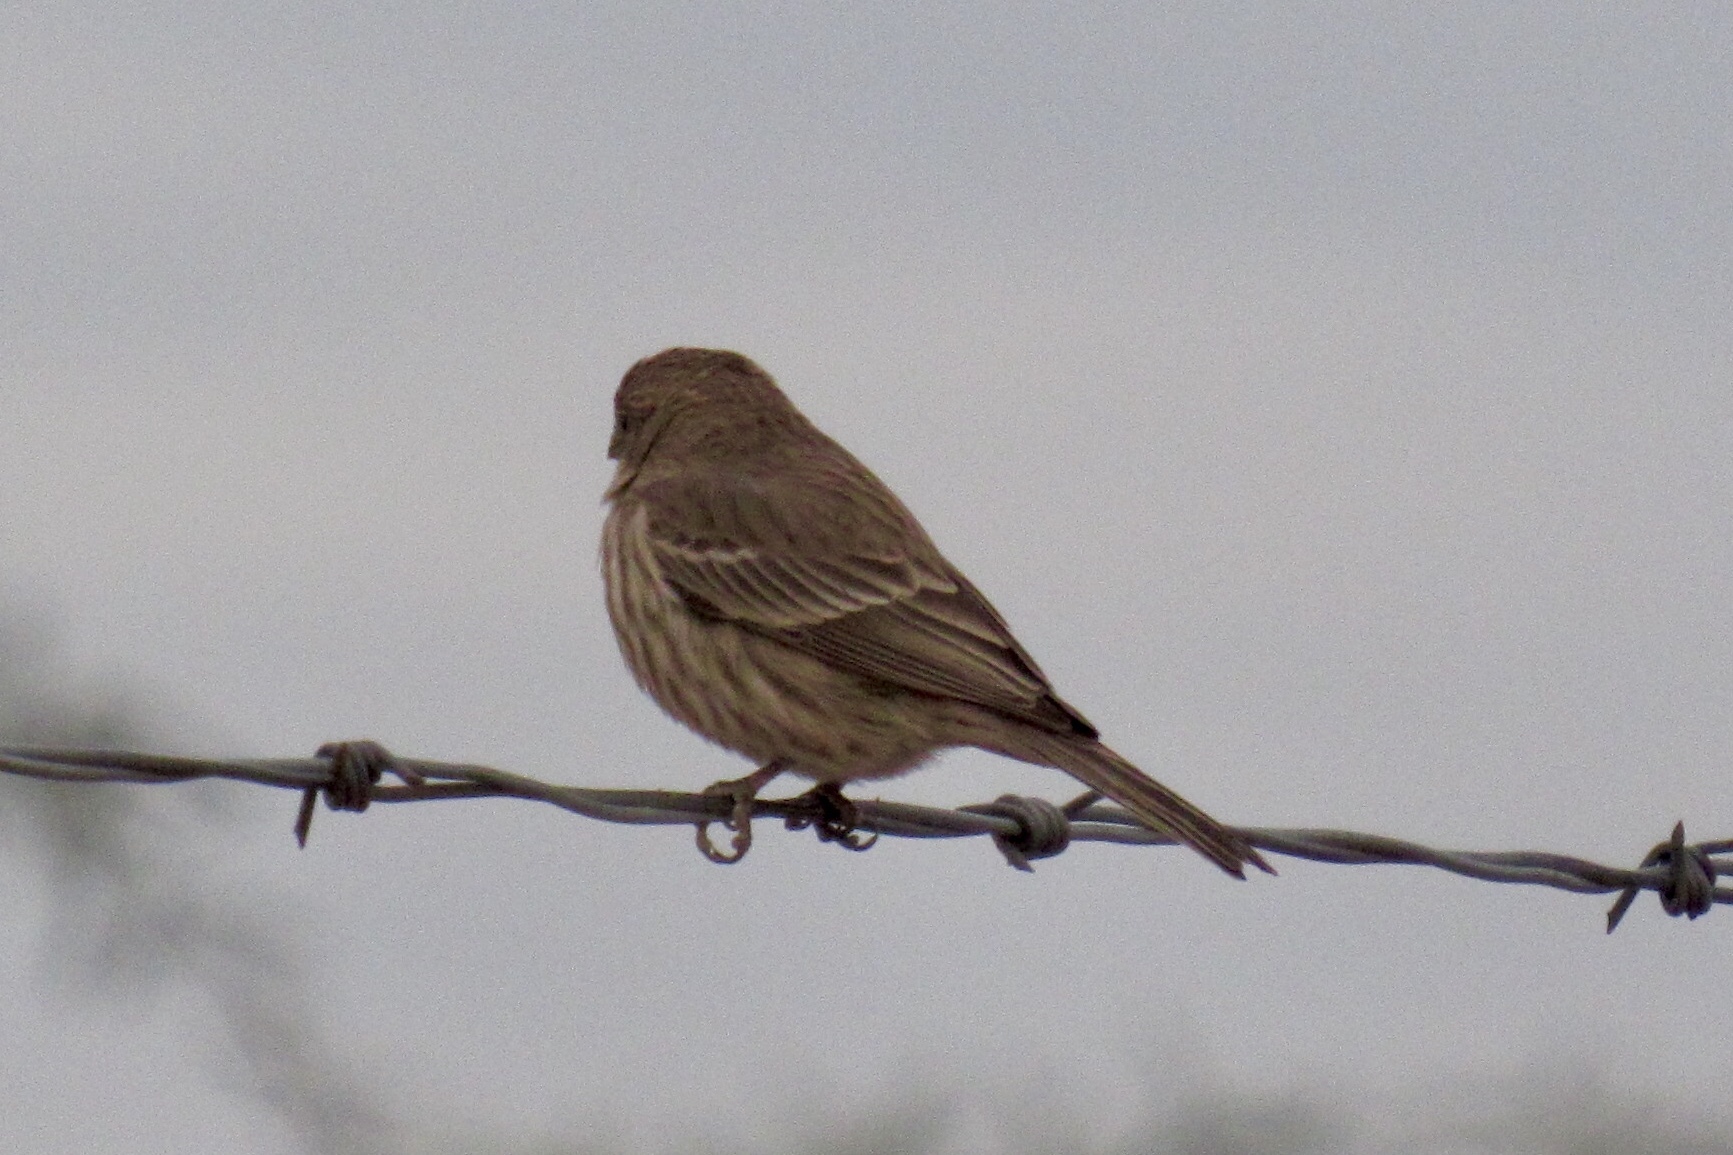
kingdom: Animalia
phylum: Chordata
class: Aves
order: Passeriformes
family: Fringillidae
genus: Haemorhous
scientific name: Haemorhous mexicanus
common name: House finch
